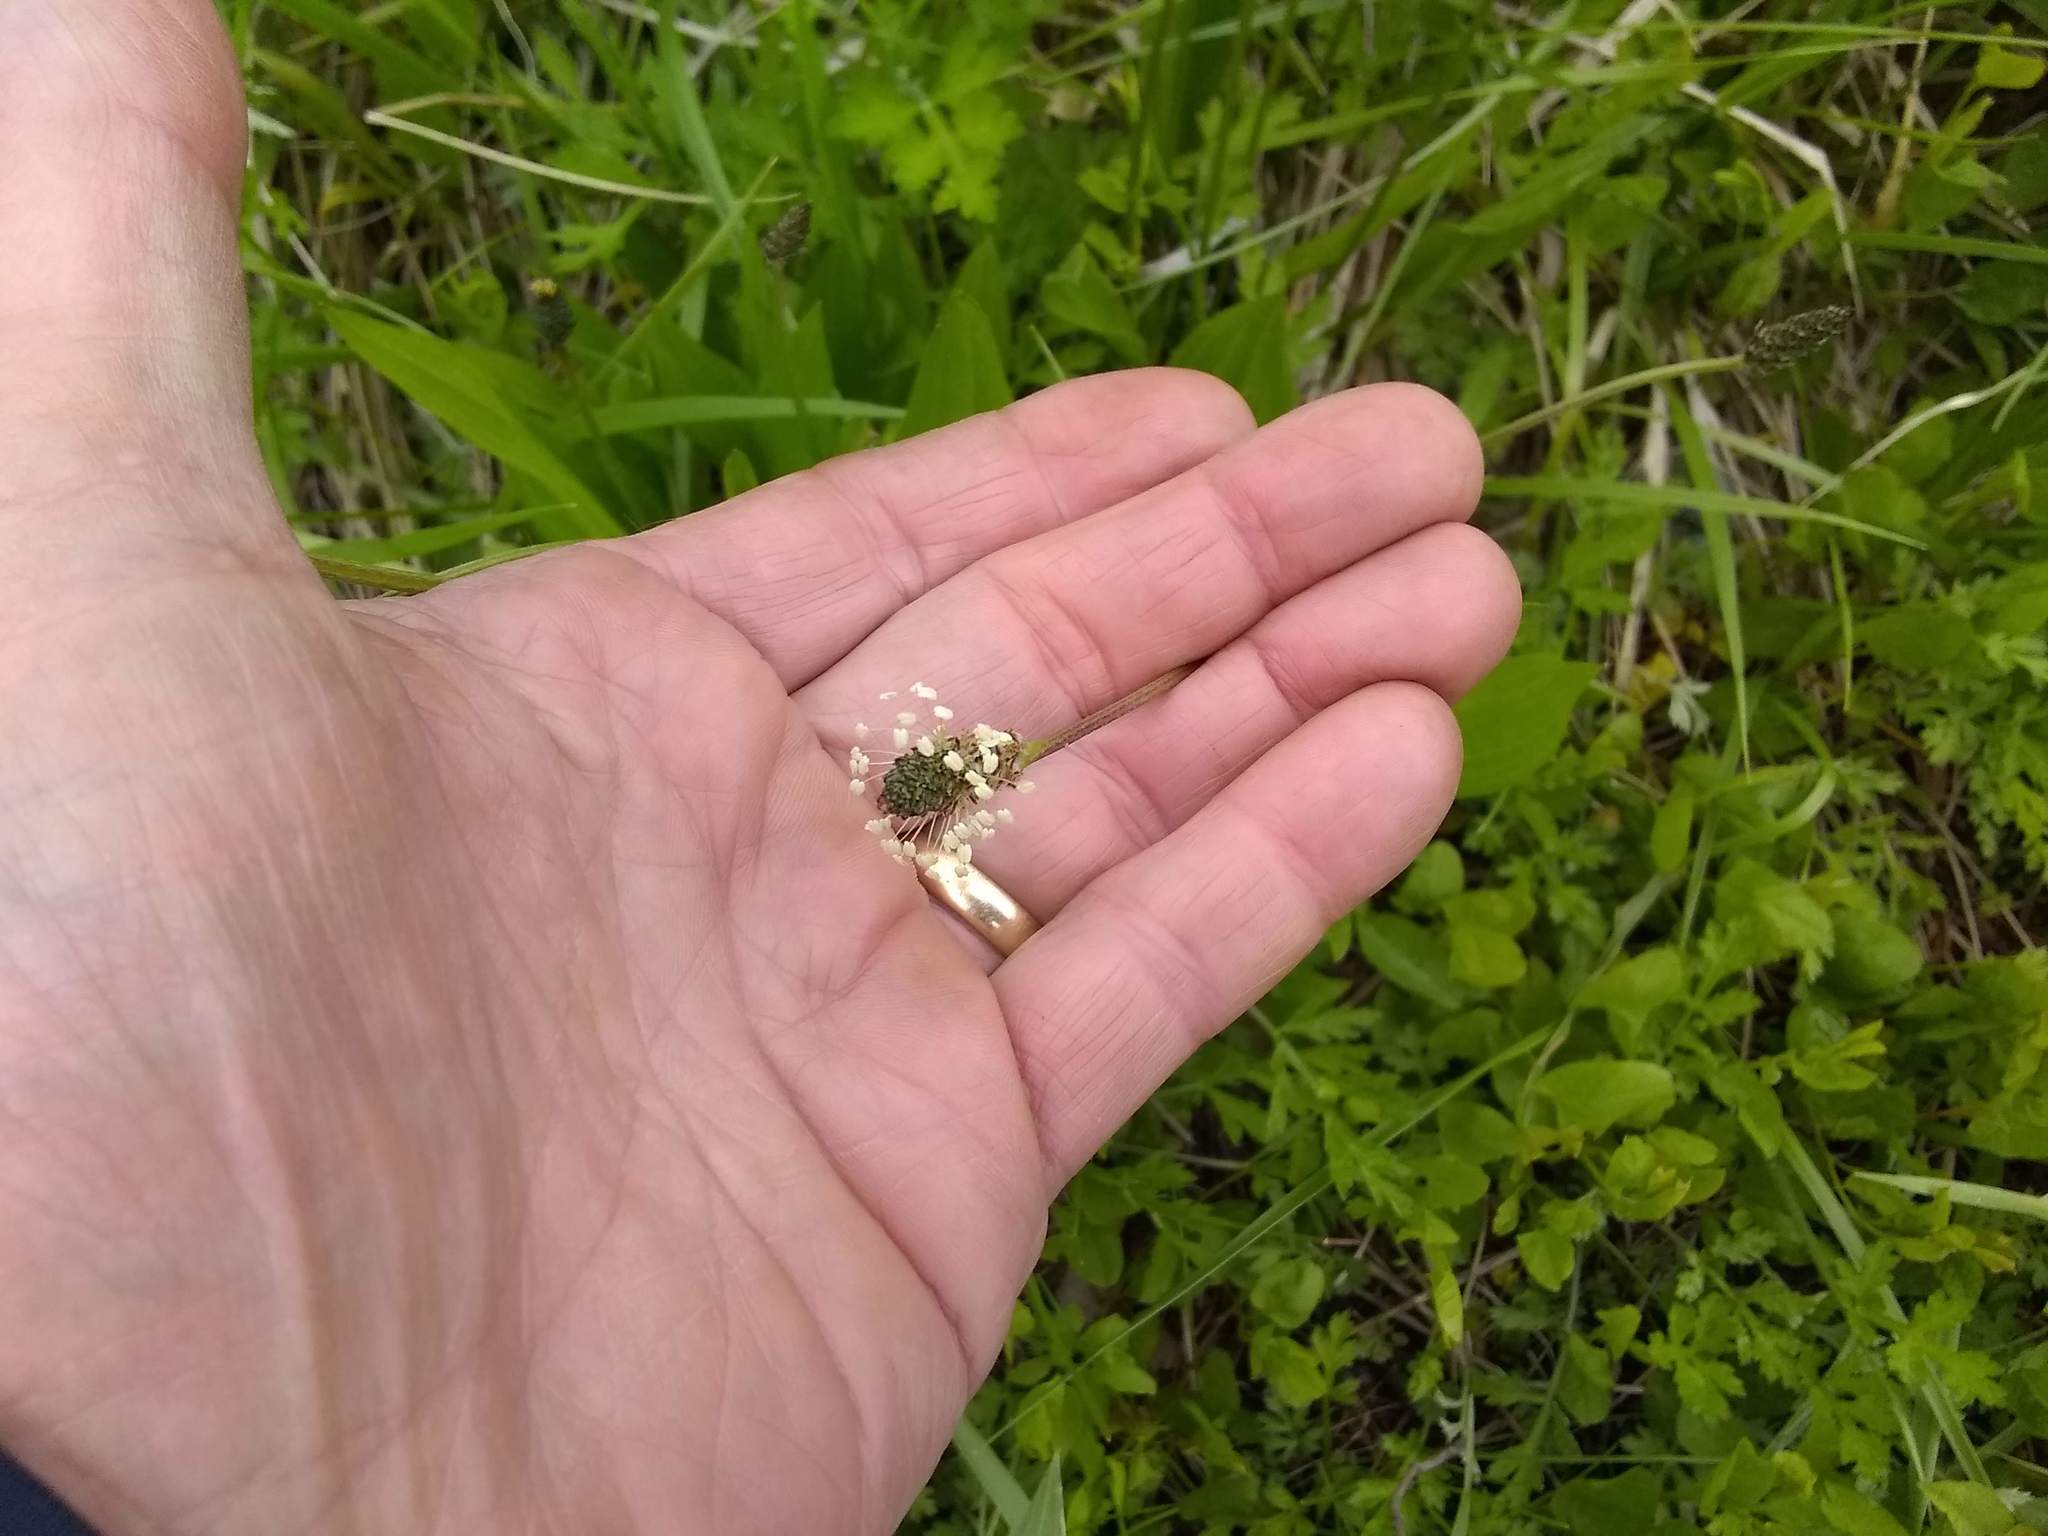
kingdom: Plantae
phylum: Tracheophyta
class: Magnoliopsida
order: Lamiales
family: Plantaginaceae
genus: Plantago
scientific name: Plantago lanceolata
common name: Ribwort plantain
